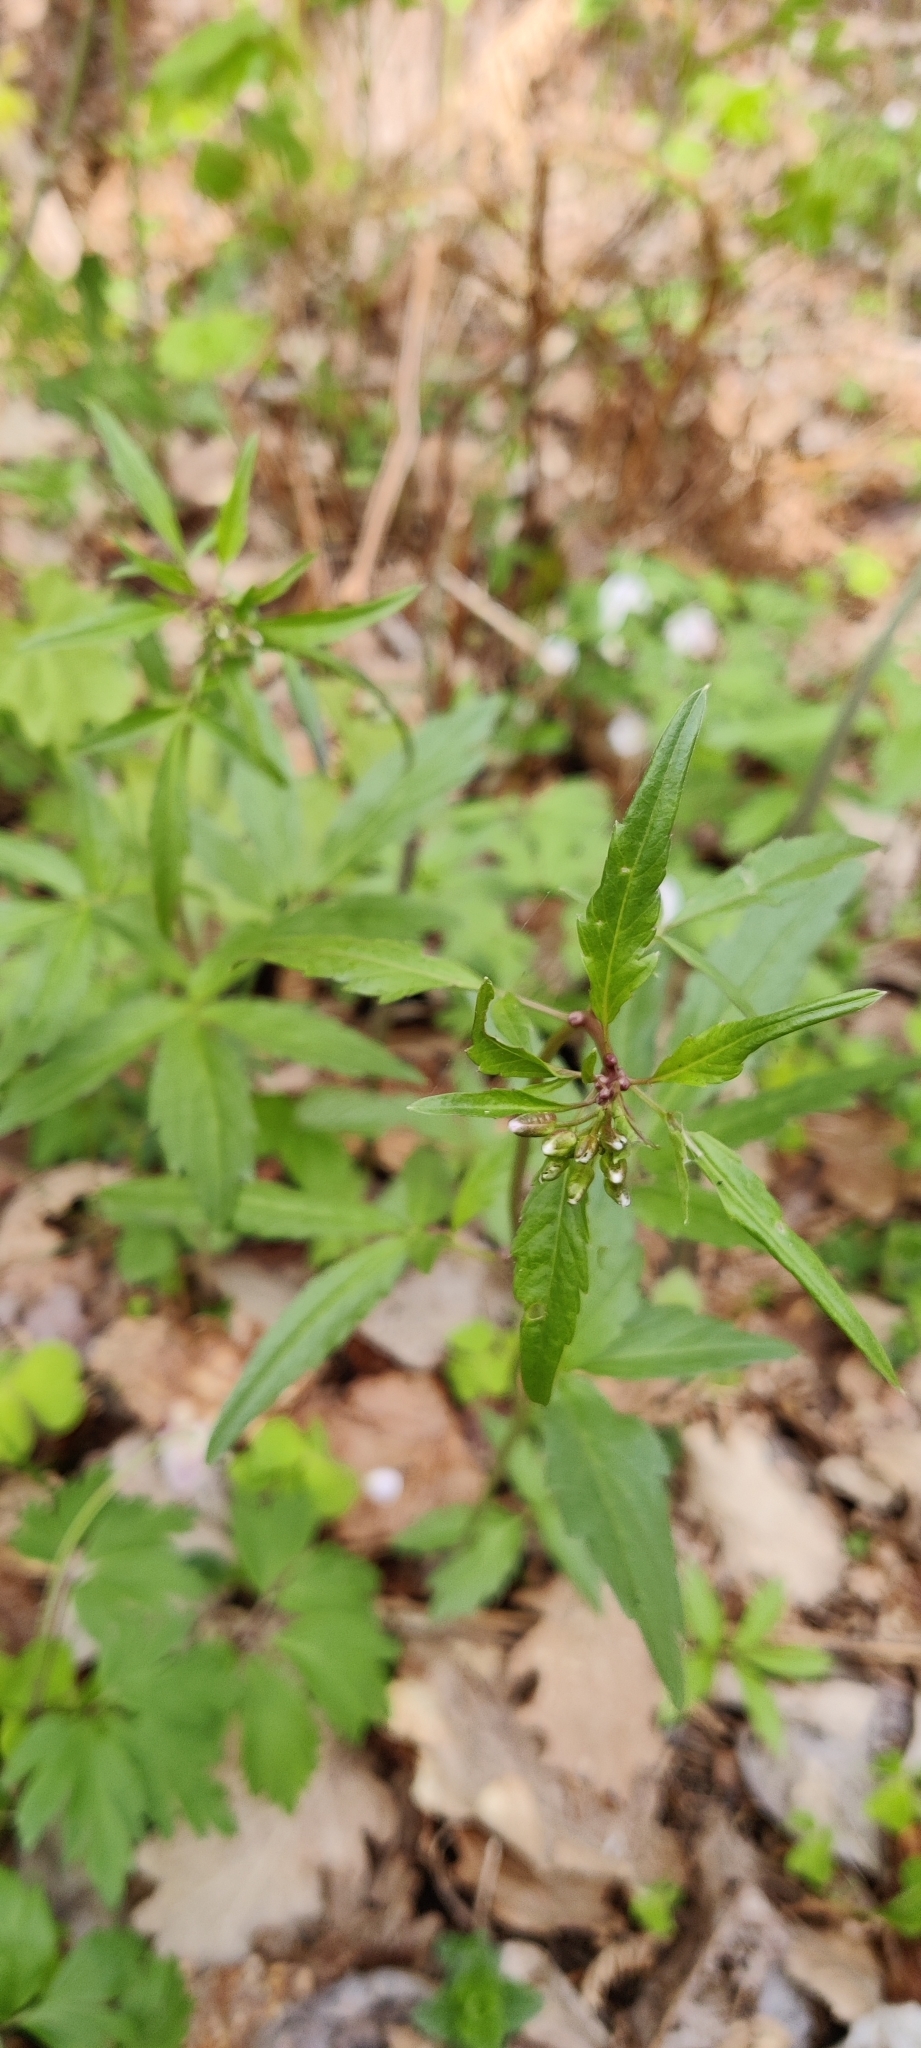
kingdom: Plantae
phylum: Tracheophyta
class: Magnoliopsida
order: Brassicales
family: Brassicaceae
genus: Cardamine
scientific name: Cardamine bulbifera
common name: Coralroot bittercress
